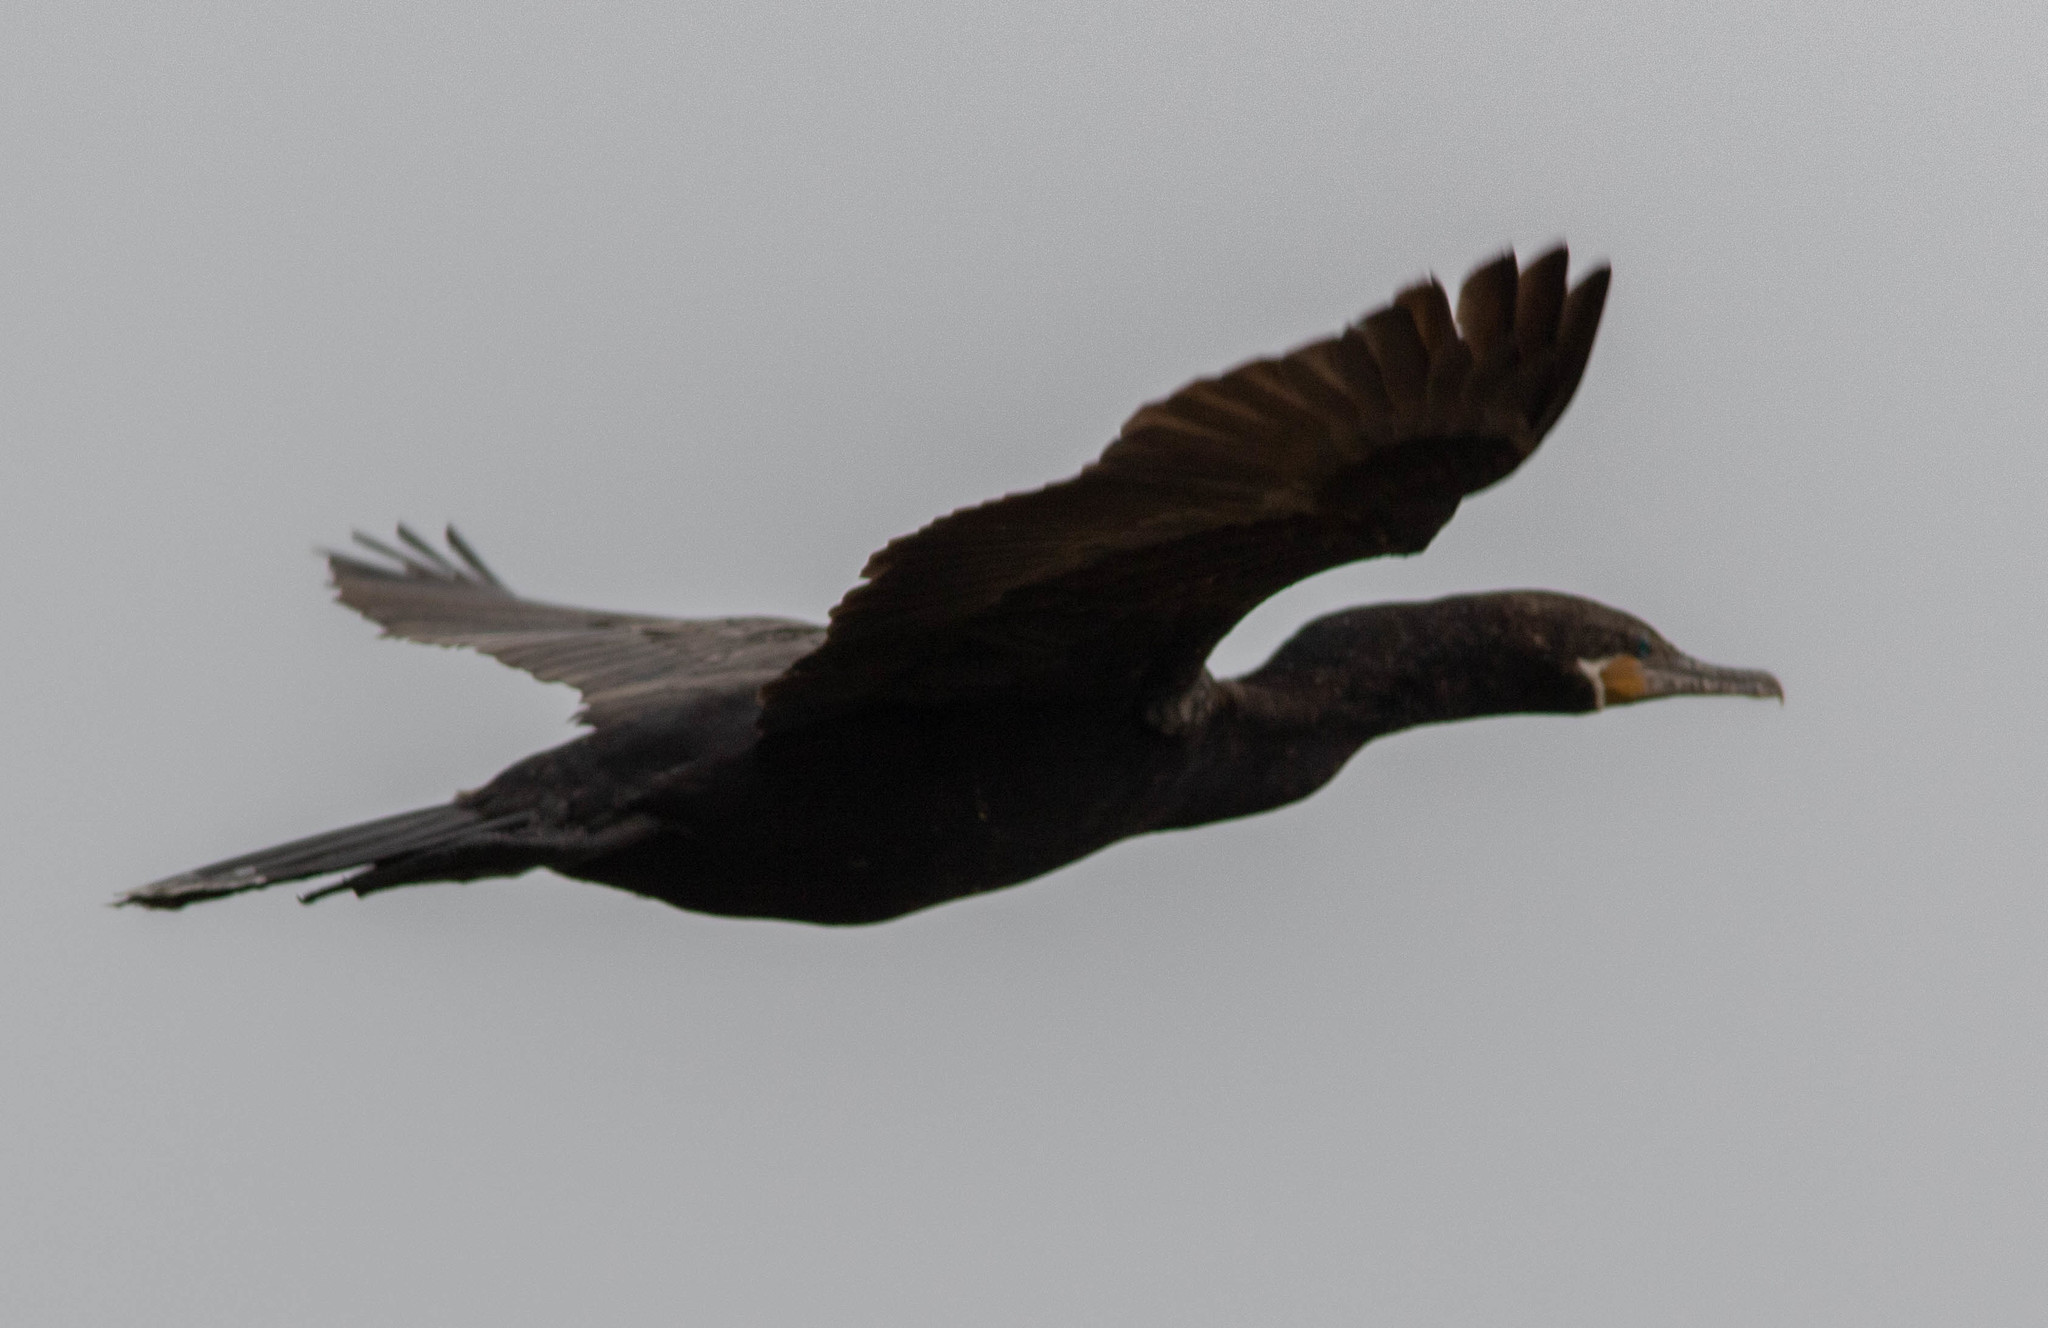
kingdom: Animalia
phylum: Chordata
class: Aves
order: Suliformes
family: Phalacrocoracidae
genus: Phalacrocorax
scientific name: Phalacrocorax brasilianus
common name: Neotropic cormorant
